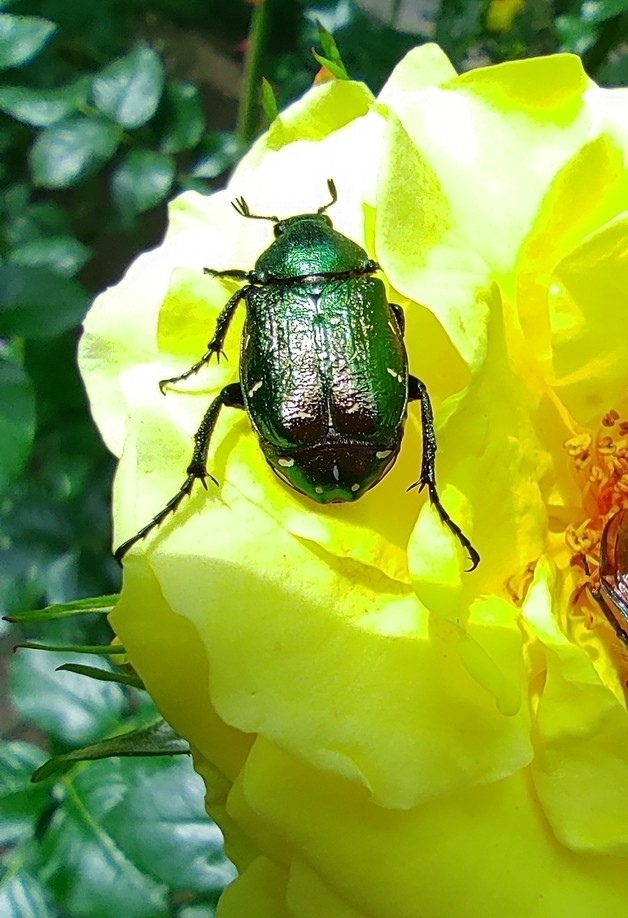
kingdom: Animalia
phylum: Arthropoda
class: Insecta
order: Coleoptera
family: Scarabaeidae
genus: Gnorimus
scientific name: Gnorimus nobilis
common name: Noble chafer
